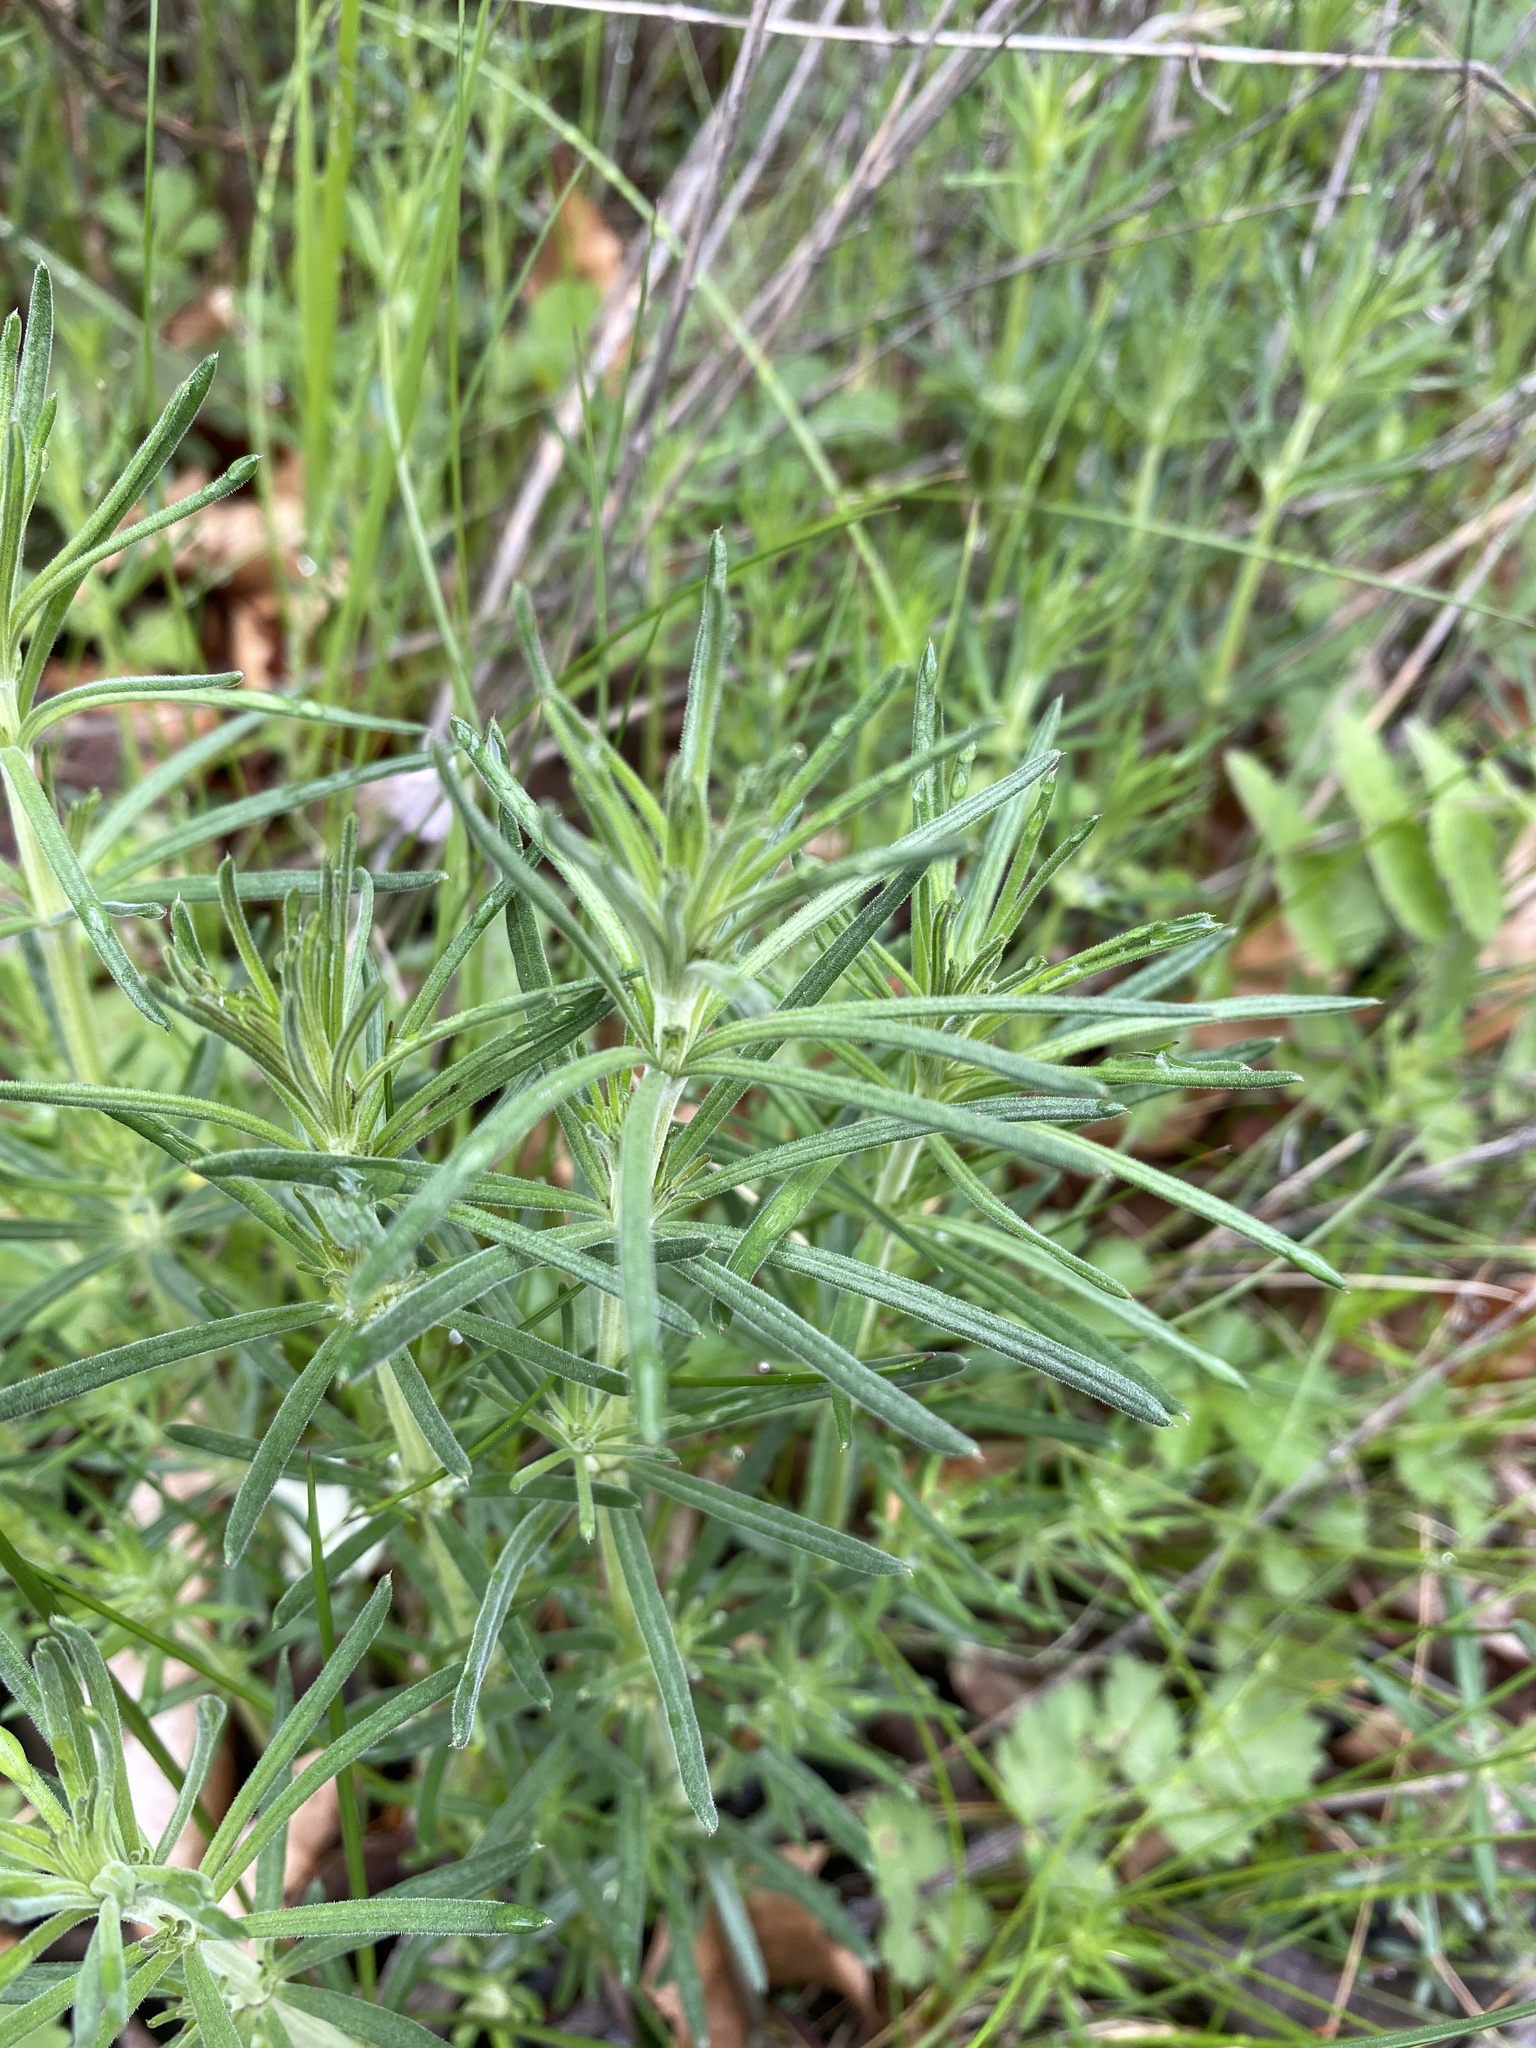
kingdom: Plantae
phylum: Tracheophyta
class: Magnoliopsida
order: Lamiales
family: Plantaginaceae
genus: Linaria
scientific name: Linaria vulgaris
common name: Butter and eggs
